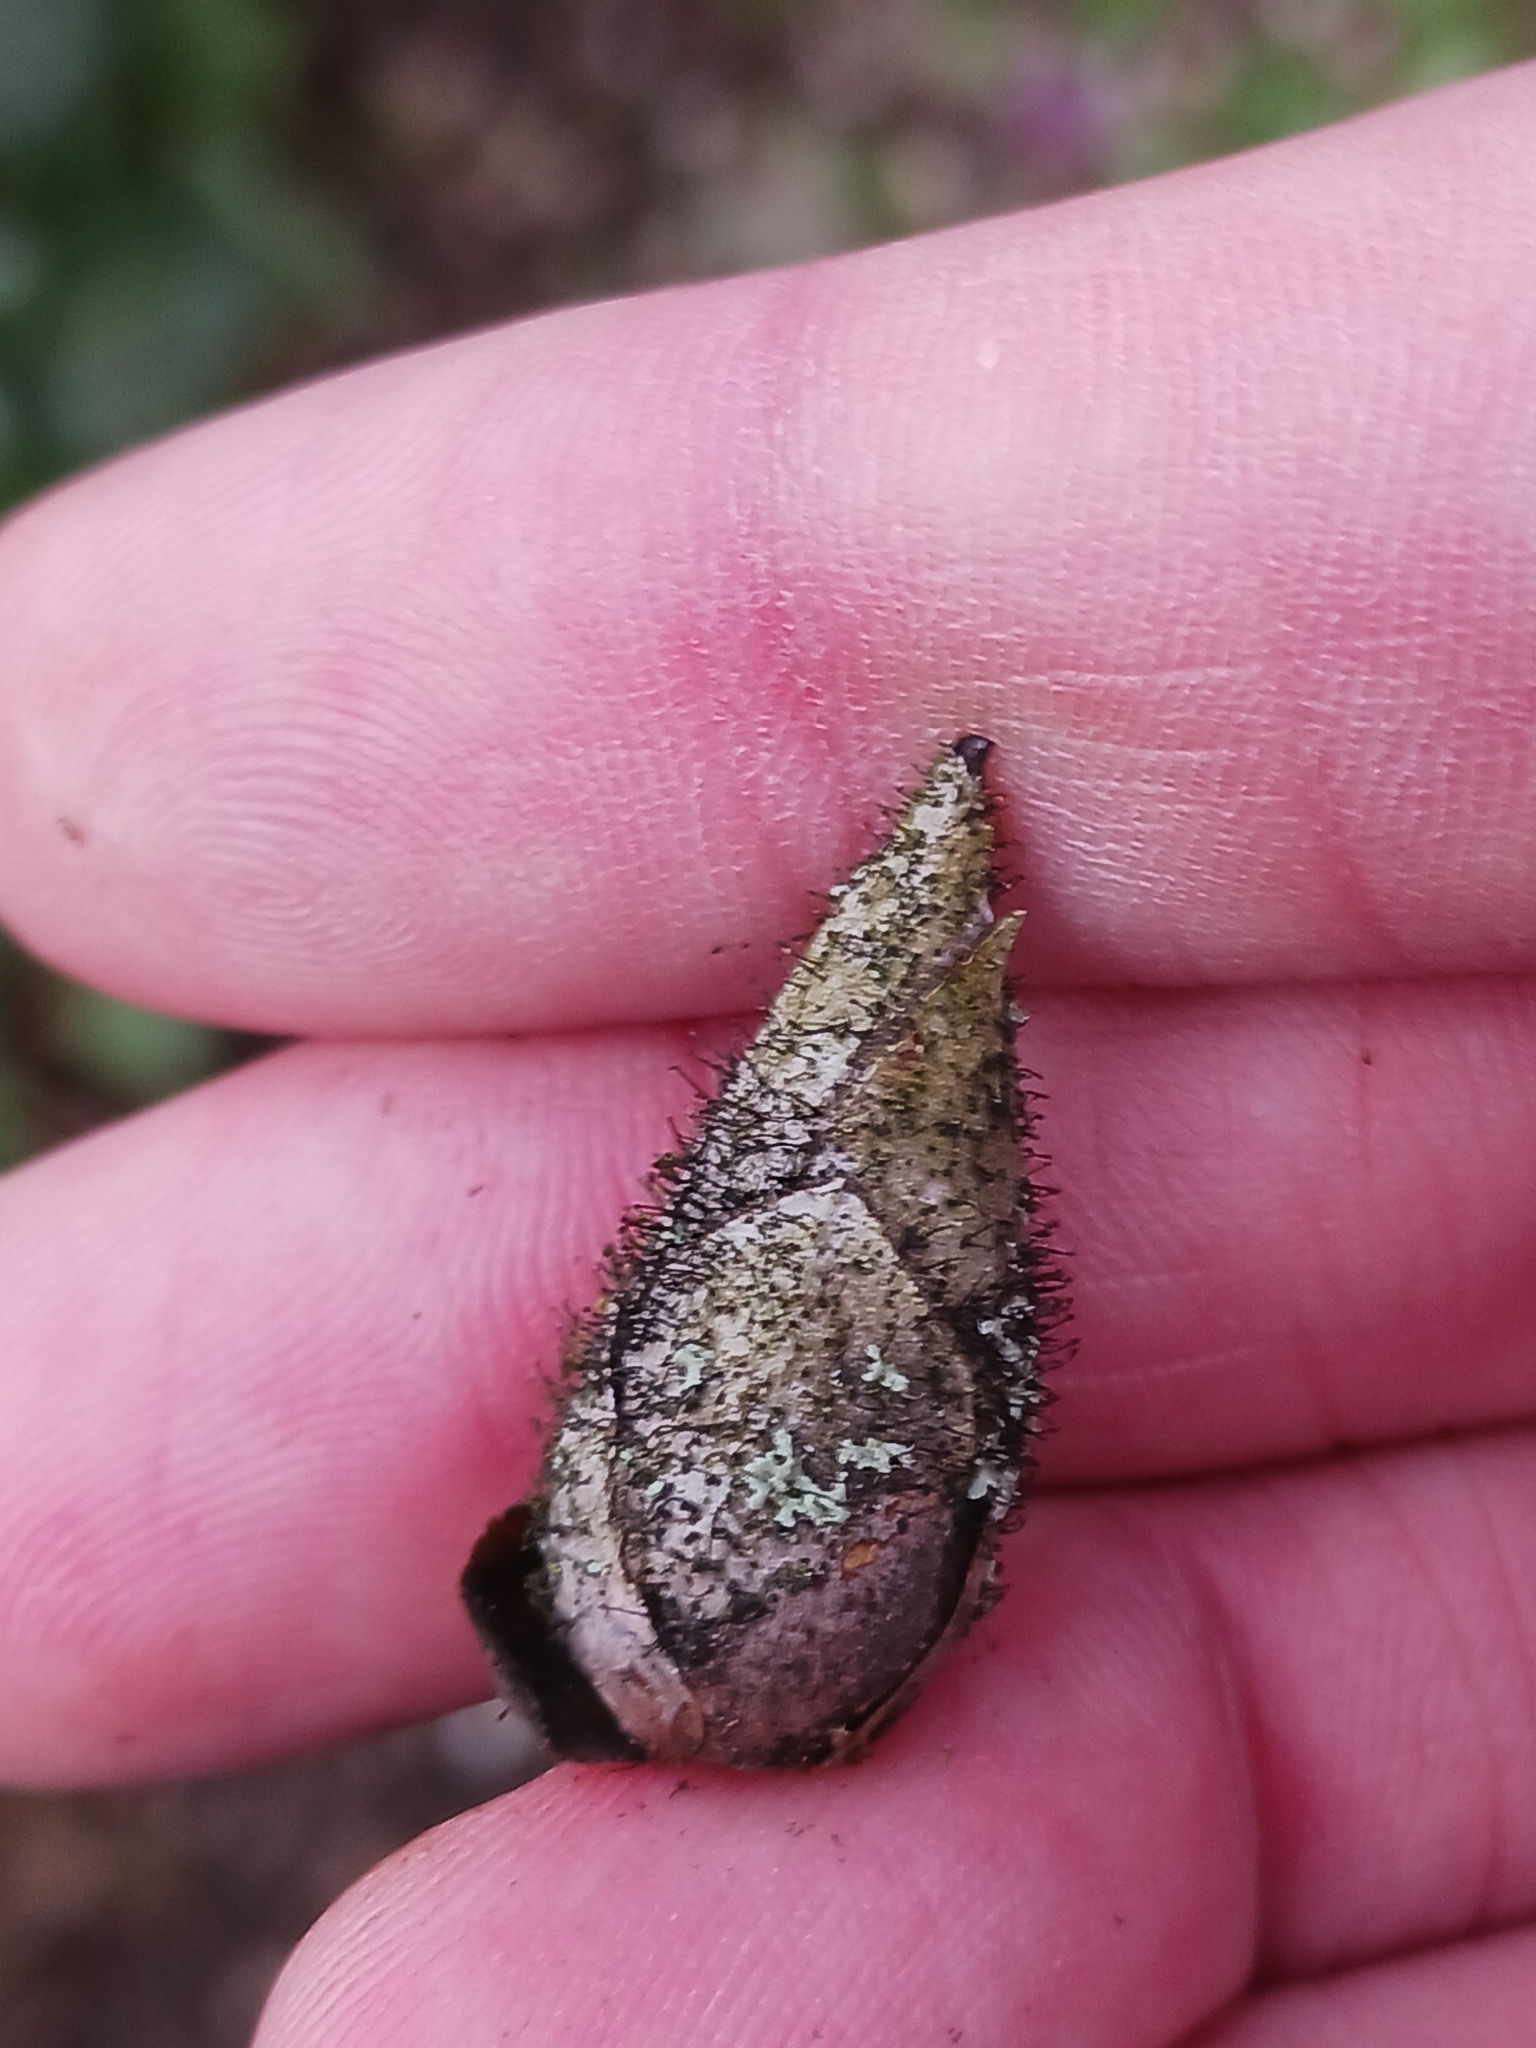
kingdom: Fungi
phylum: Ascomycota
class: Dothideomycetes
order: Pleosporales
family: Melanommataceae
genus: Seifertia
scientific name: Seifertia azaleae
